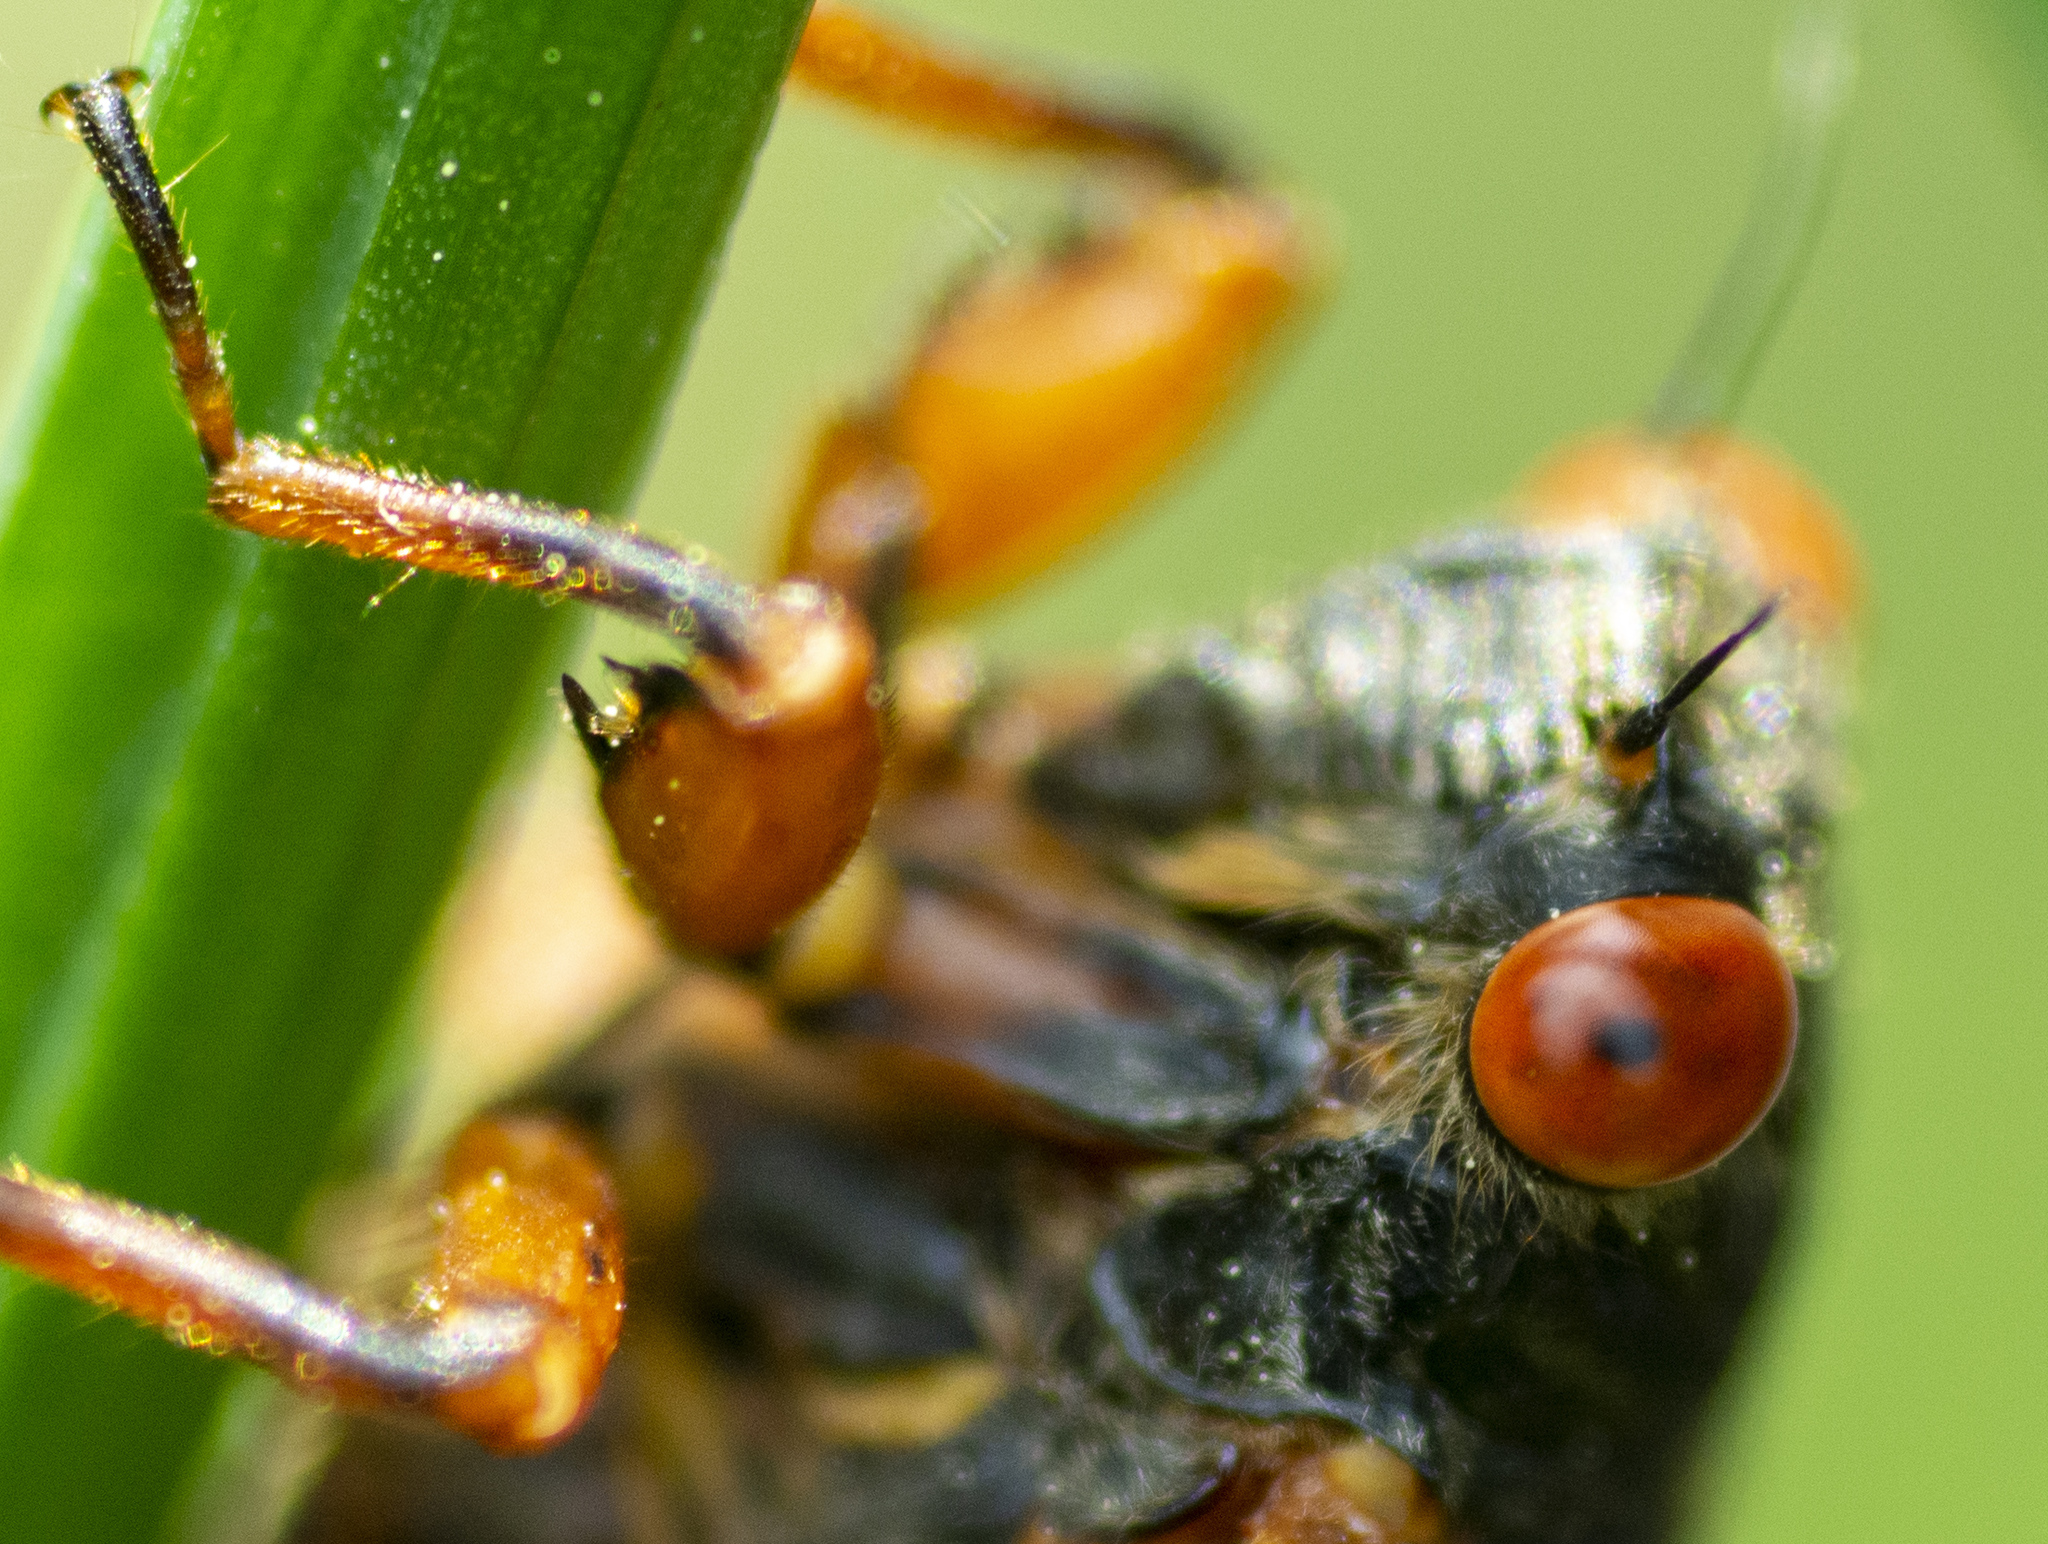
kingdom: Animalia
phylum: Arthropoda
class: Insecta
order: Hemiptera
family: Cicadidae
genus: Magicicada
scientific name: Magicicada cassini
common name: Cassin's 17-year cicada
